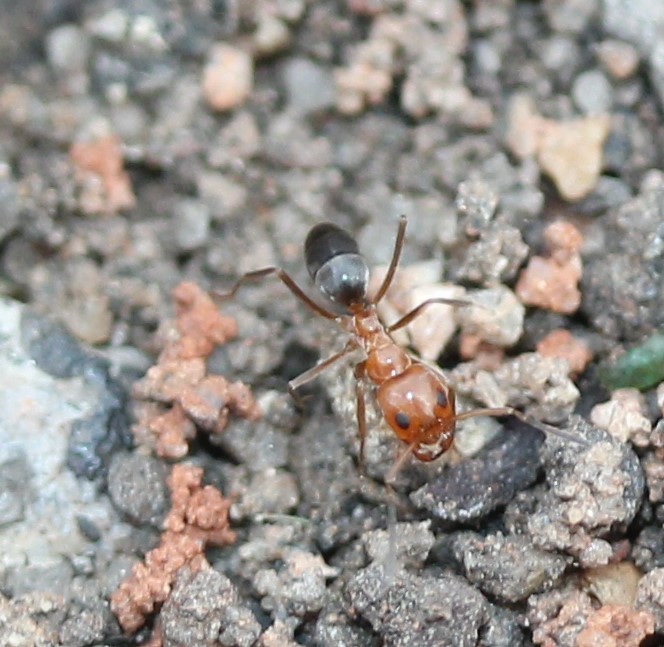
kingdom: Animalia
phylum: Arthropoda
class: Insecta
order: Hymenoptera
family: Formicidae
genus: Dorymyrmex
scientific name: Dorymyrmex bicolor
